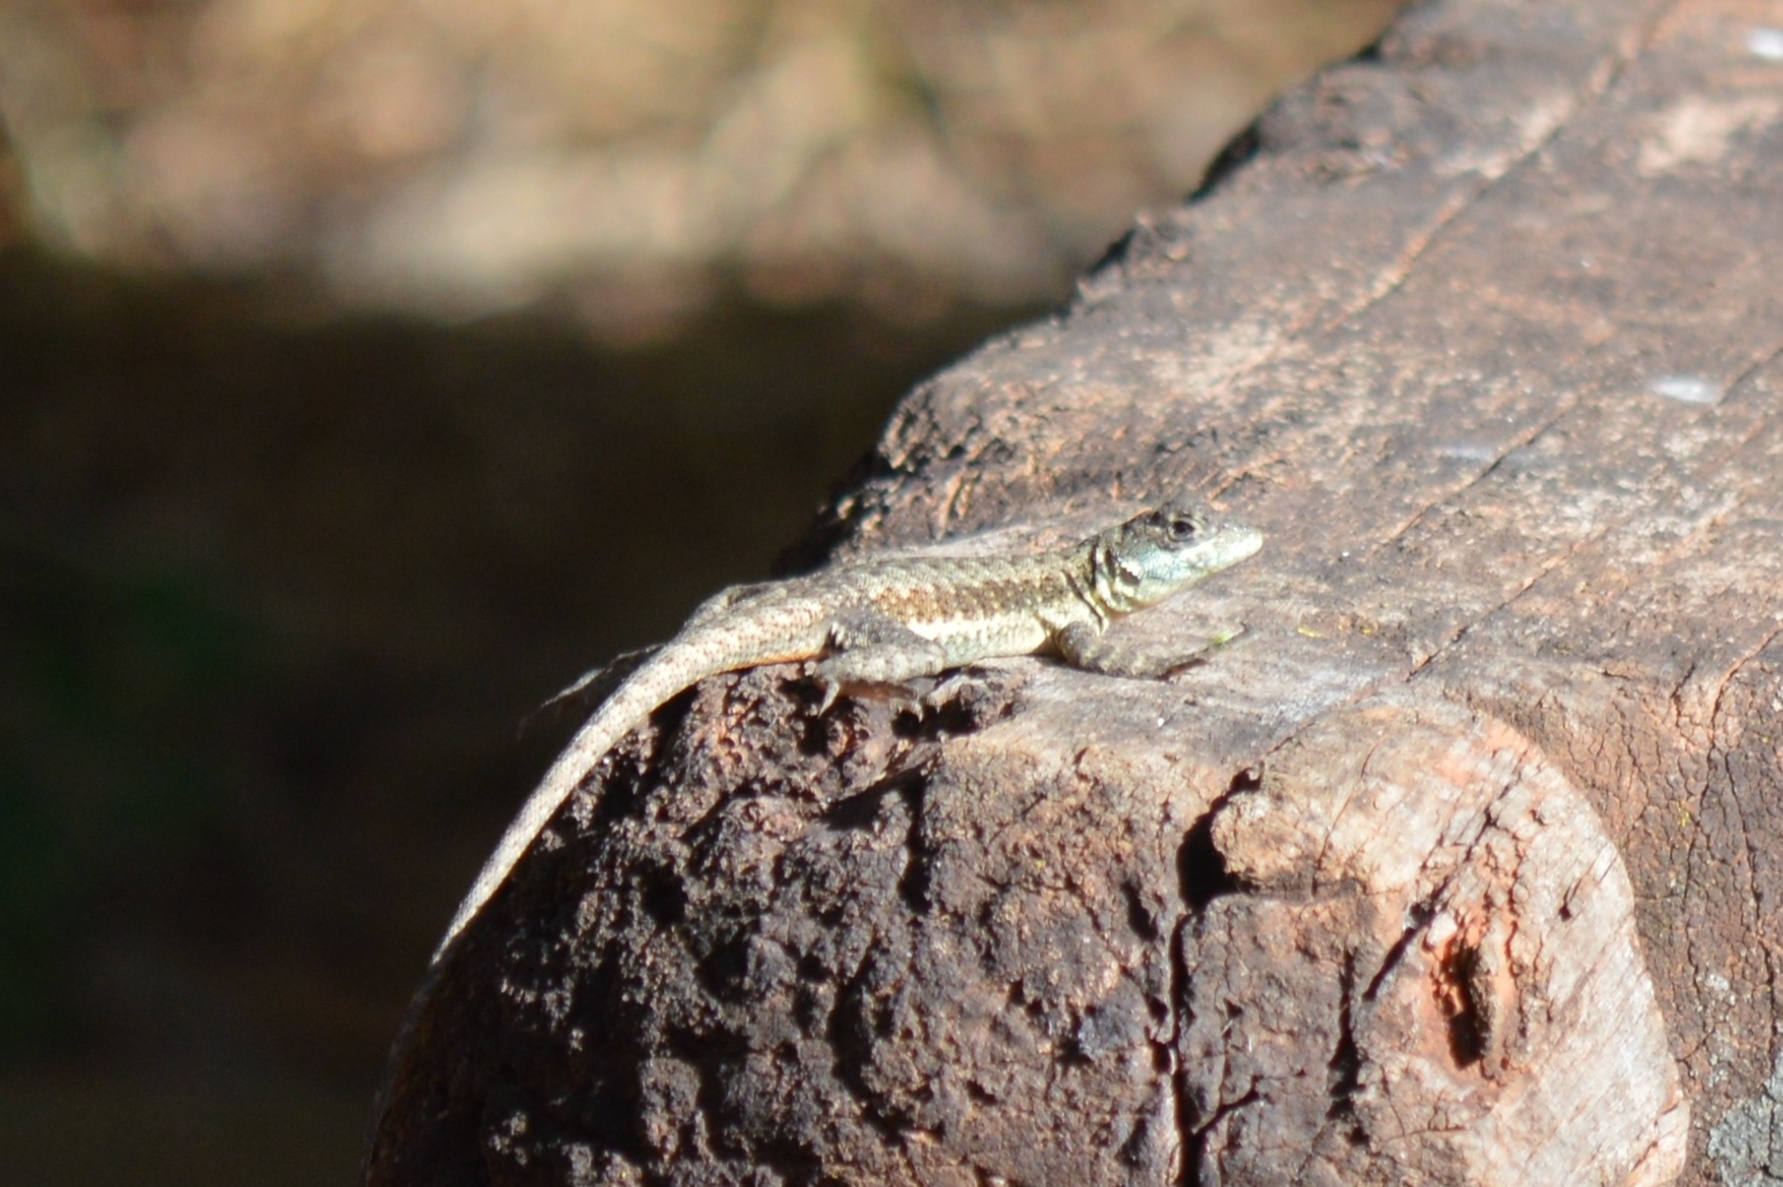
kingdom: Animalia
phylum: Chordata
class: Squamata
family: Tropiduridae
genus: Tropidurus
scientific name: Tropidurus torquatus
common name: Amazon lava lizard
